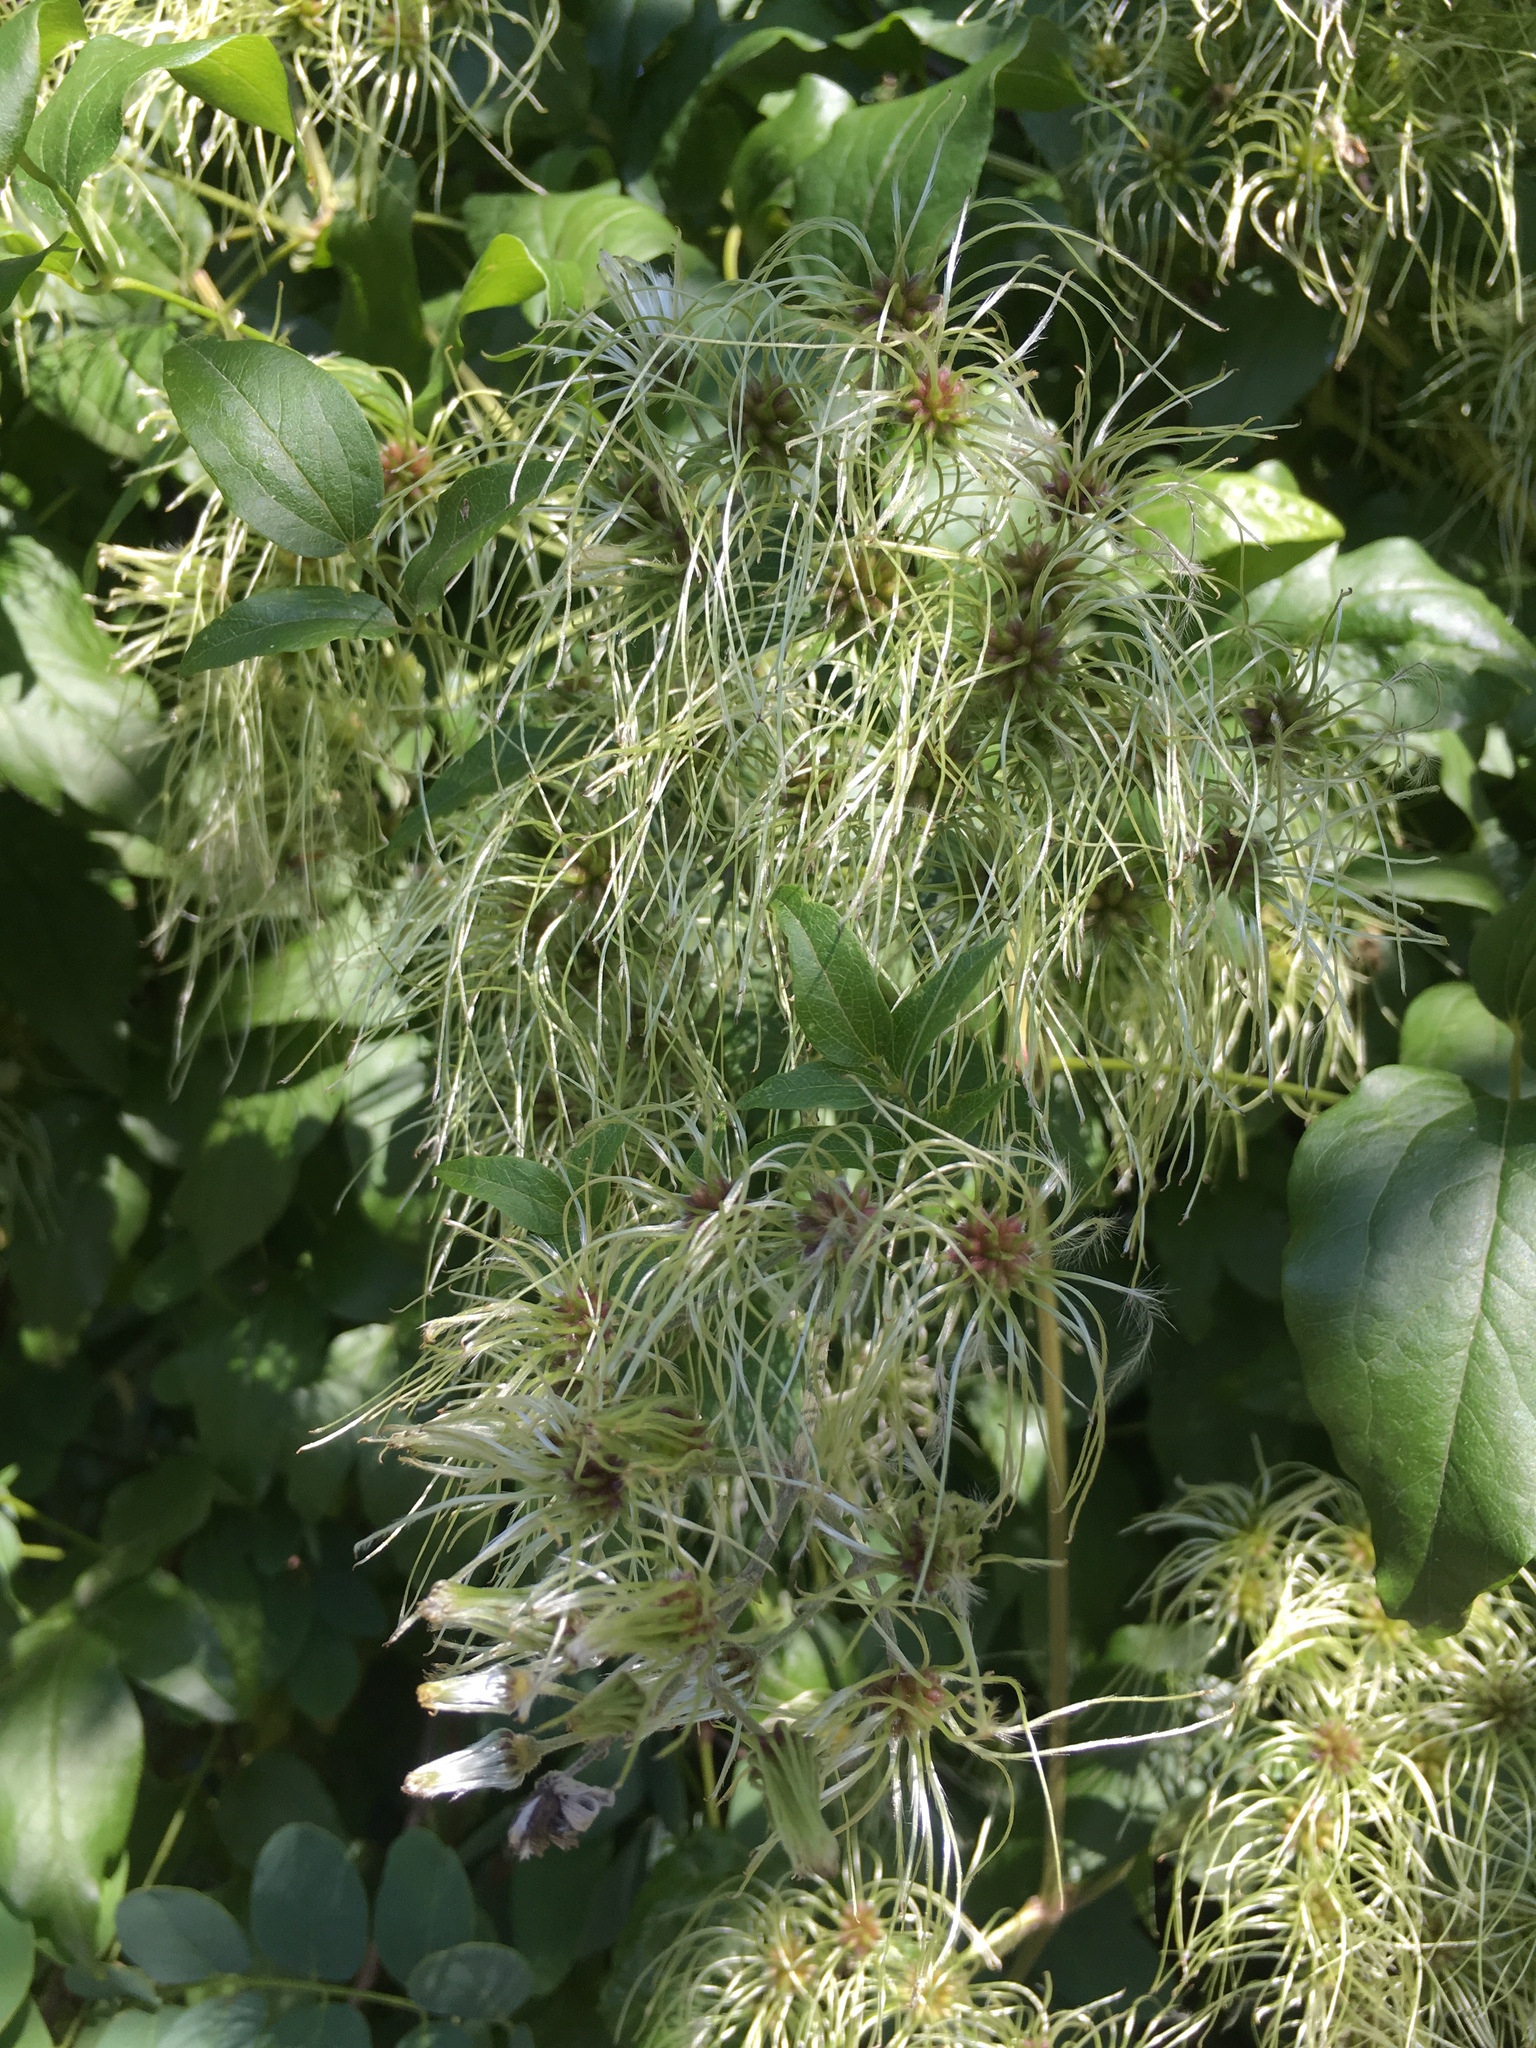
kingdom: Plantae
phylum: Tracheophyta
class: Magnoliopsida
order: Ranunculales
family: Ranunculaceae
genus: Clematis
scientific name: Clematis vitalba
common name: Evergreen clematis
